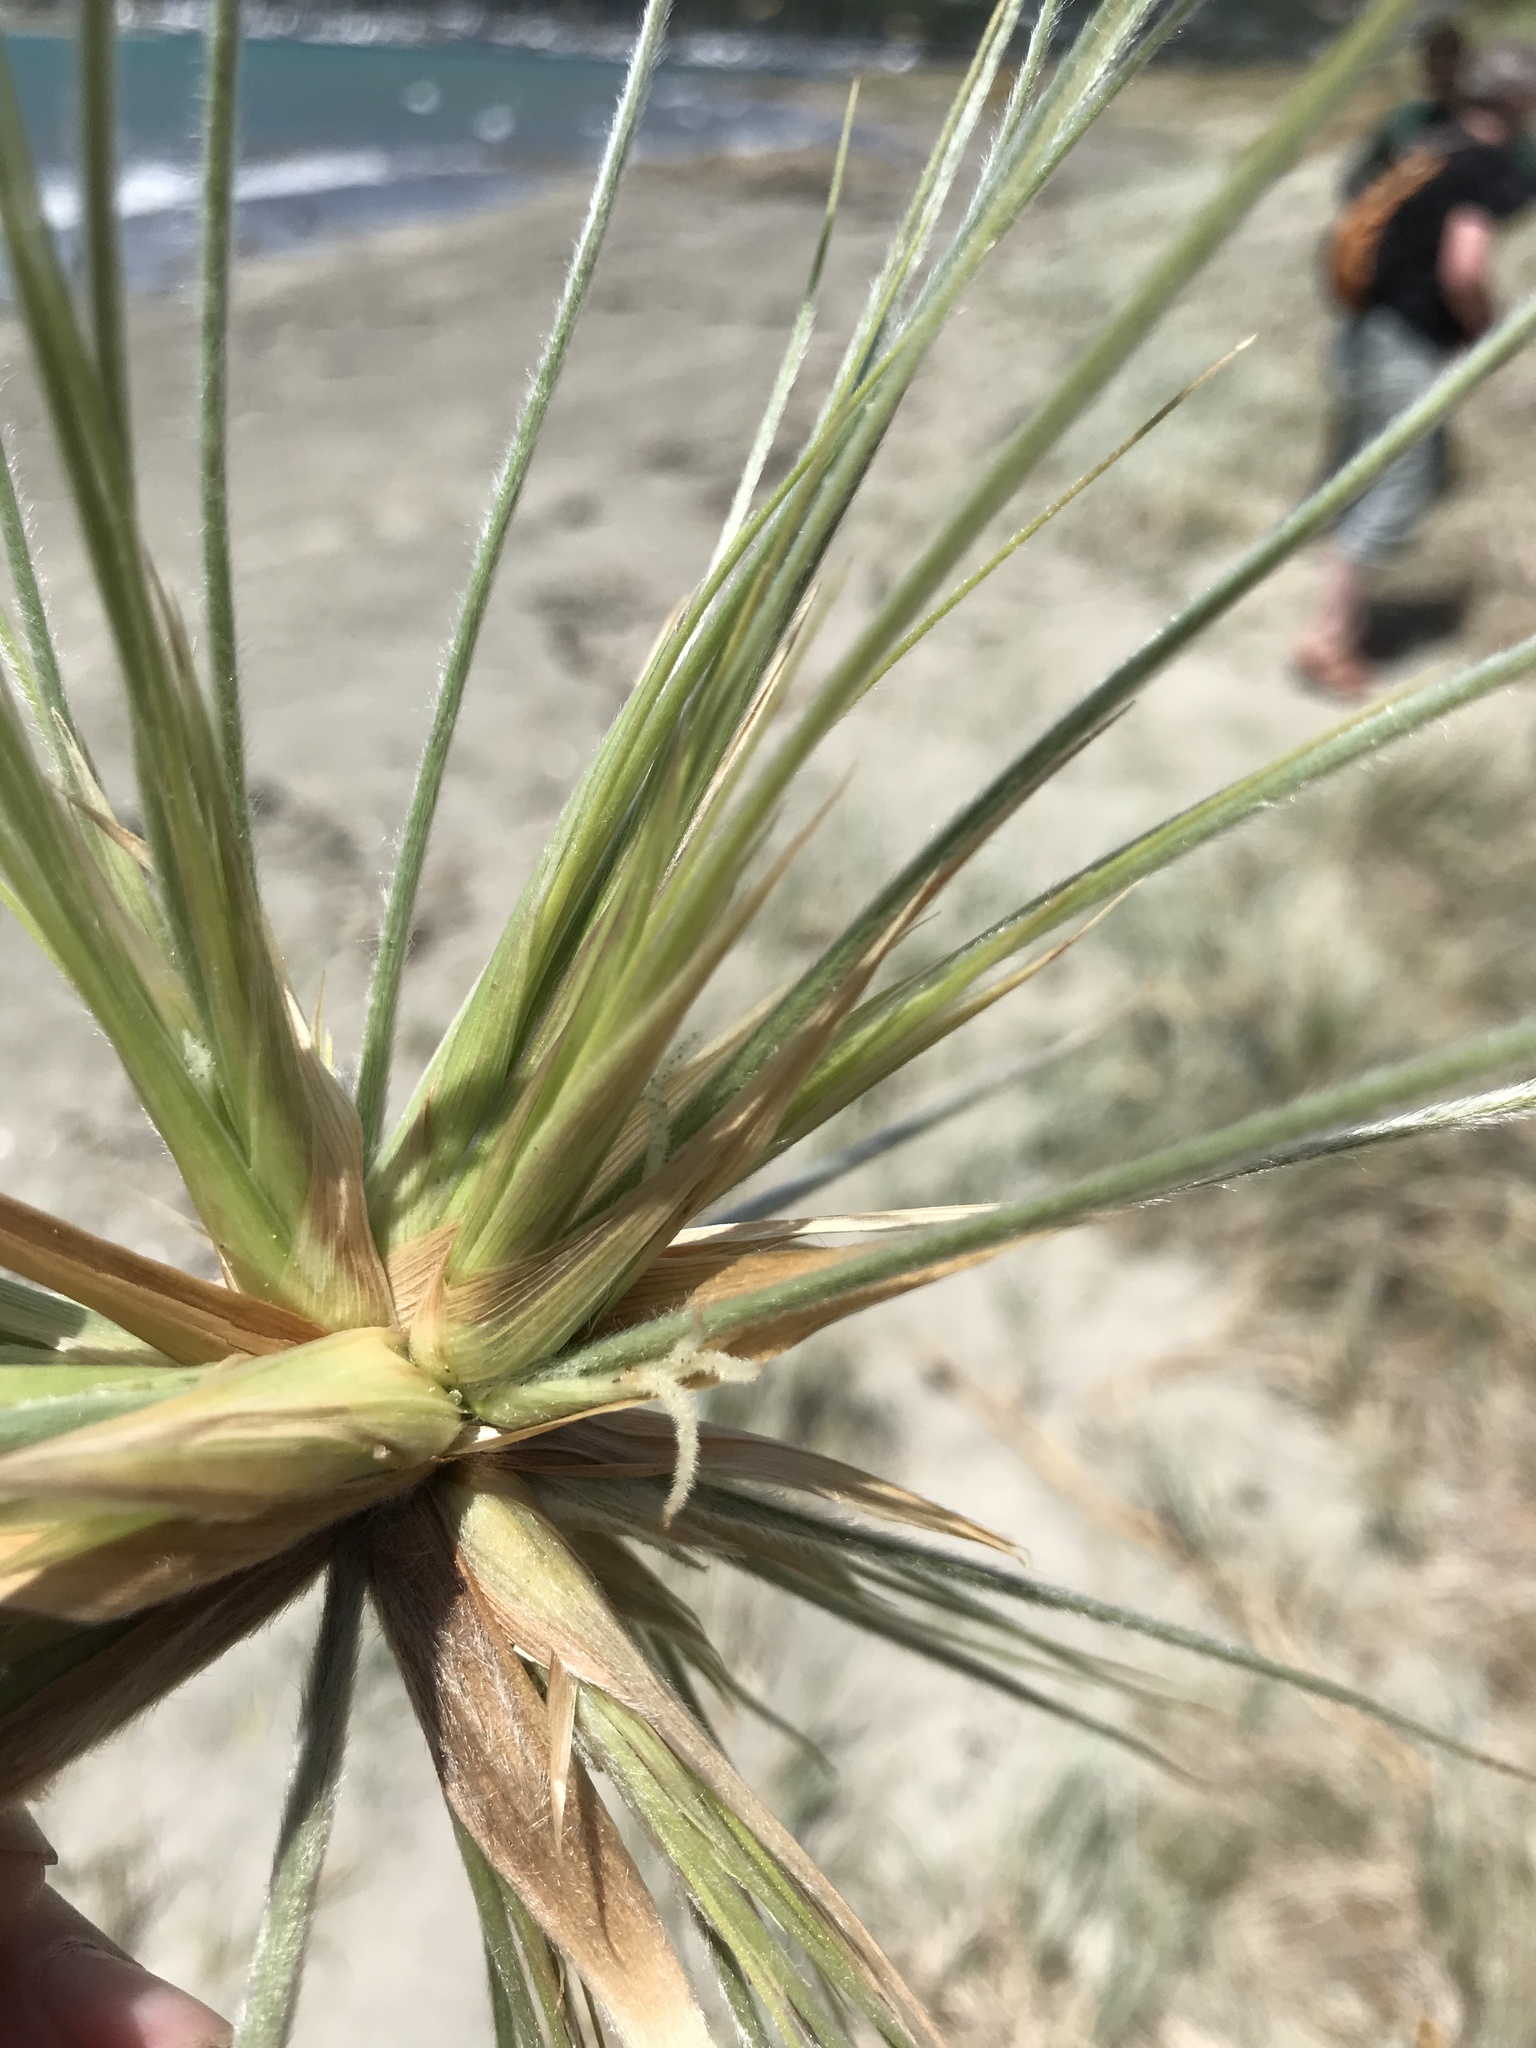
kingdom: Plantae
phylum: Tracheophyta
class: Liliopsida
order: Poales
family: Poaceae
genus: Spinifex
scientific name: Spinifex sericeus
